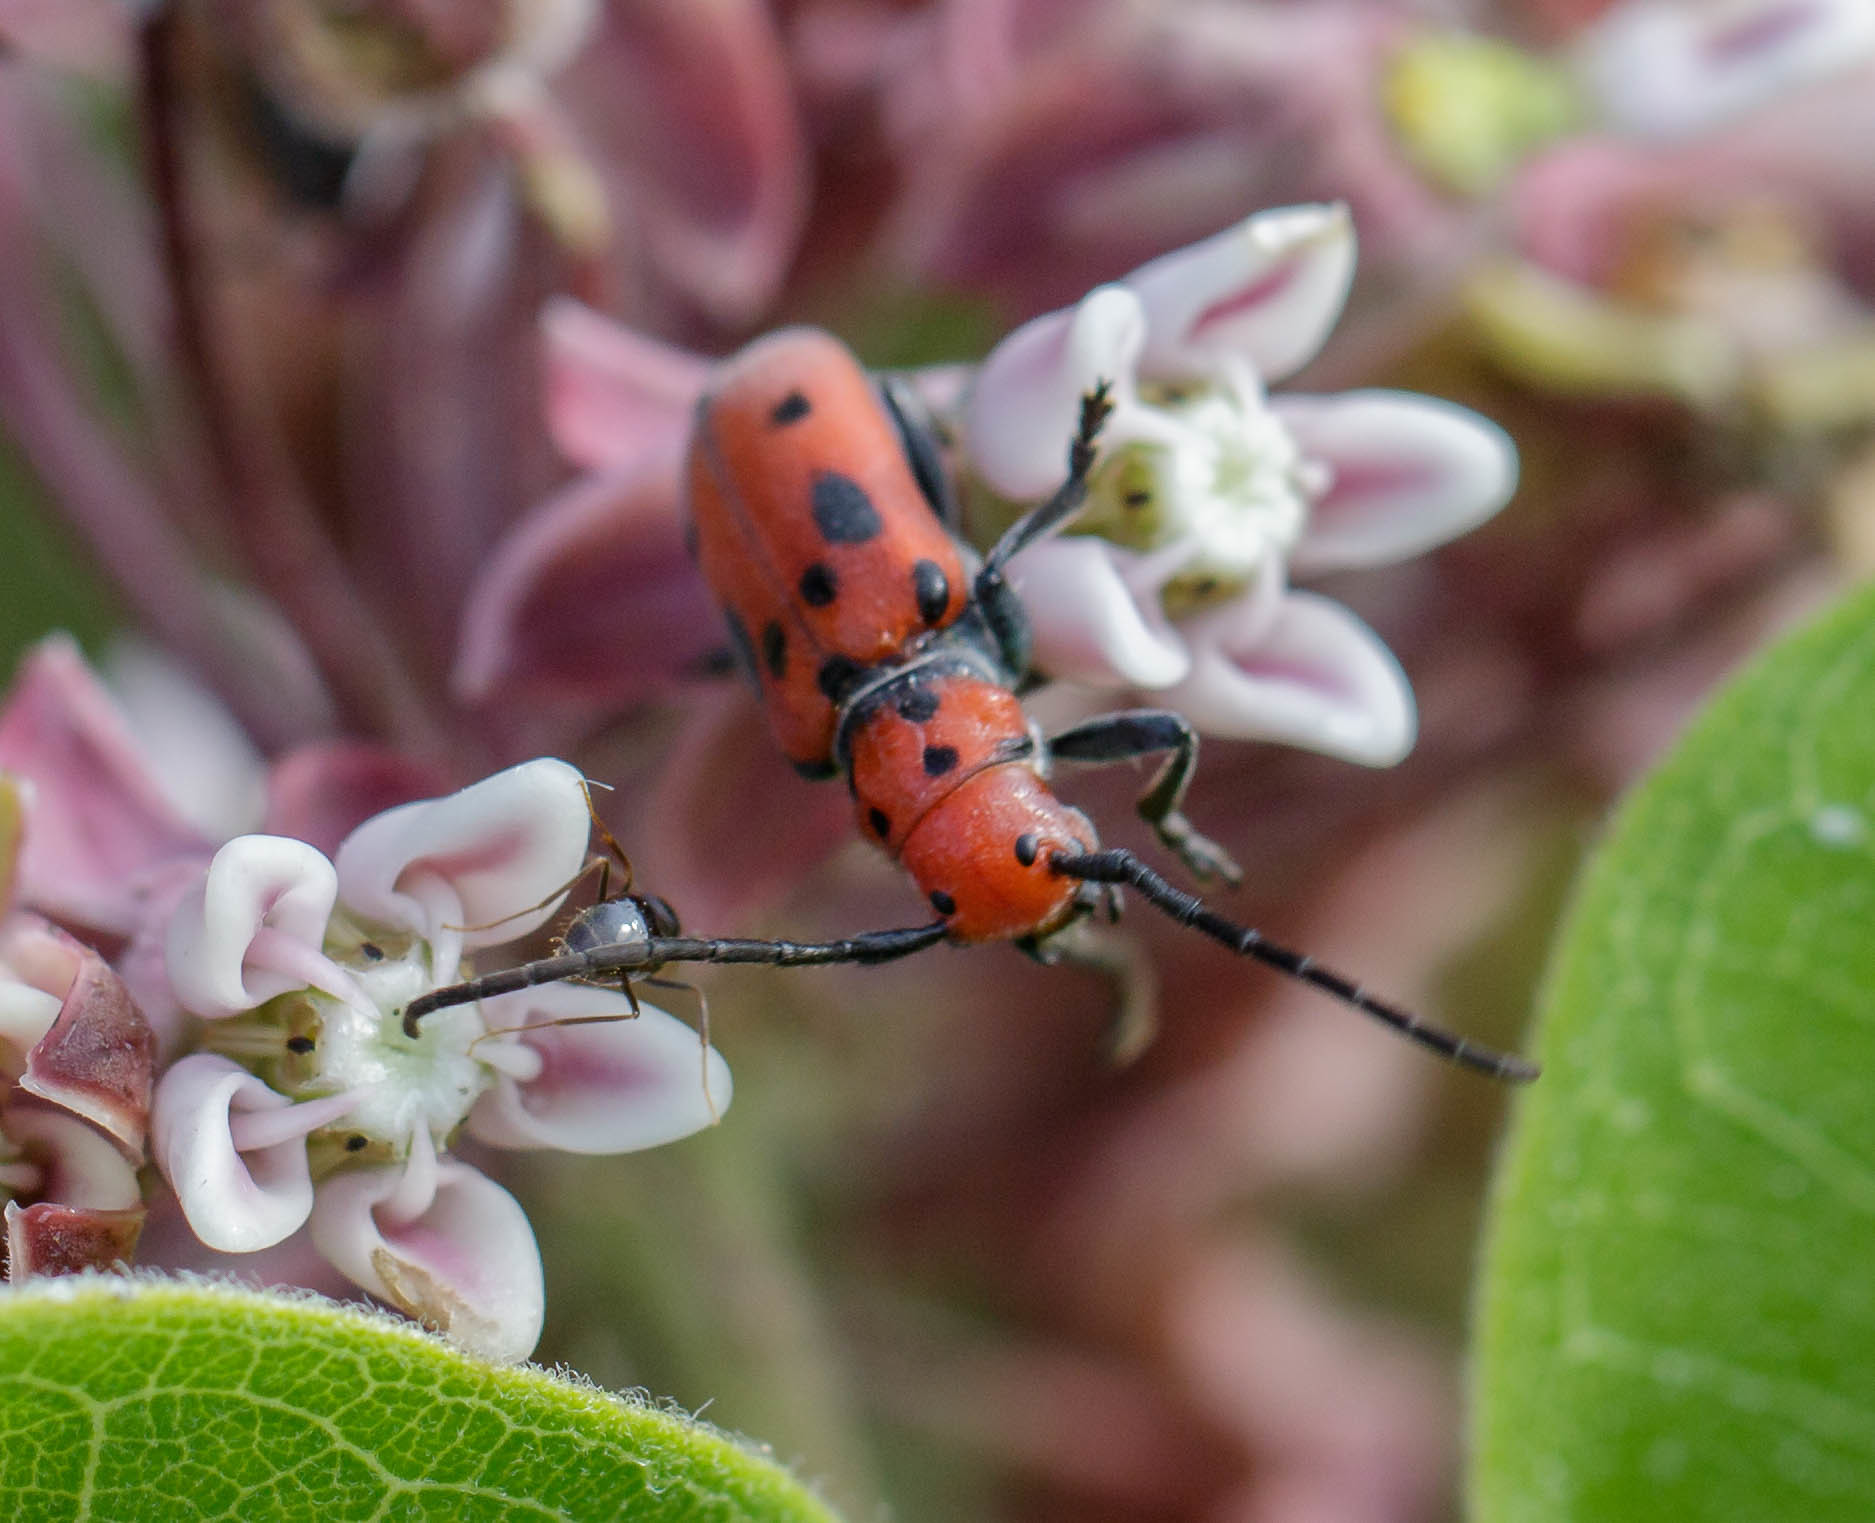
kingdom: Animalia
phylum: Arthropoda
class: Insecta
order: Coleoptera
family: Cerambycidae
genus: Tetraopes
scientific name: Tetraopes tetrophthalmus
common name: Red milkweed beetle
